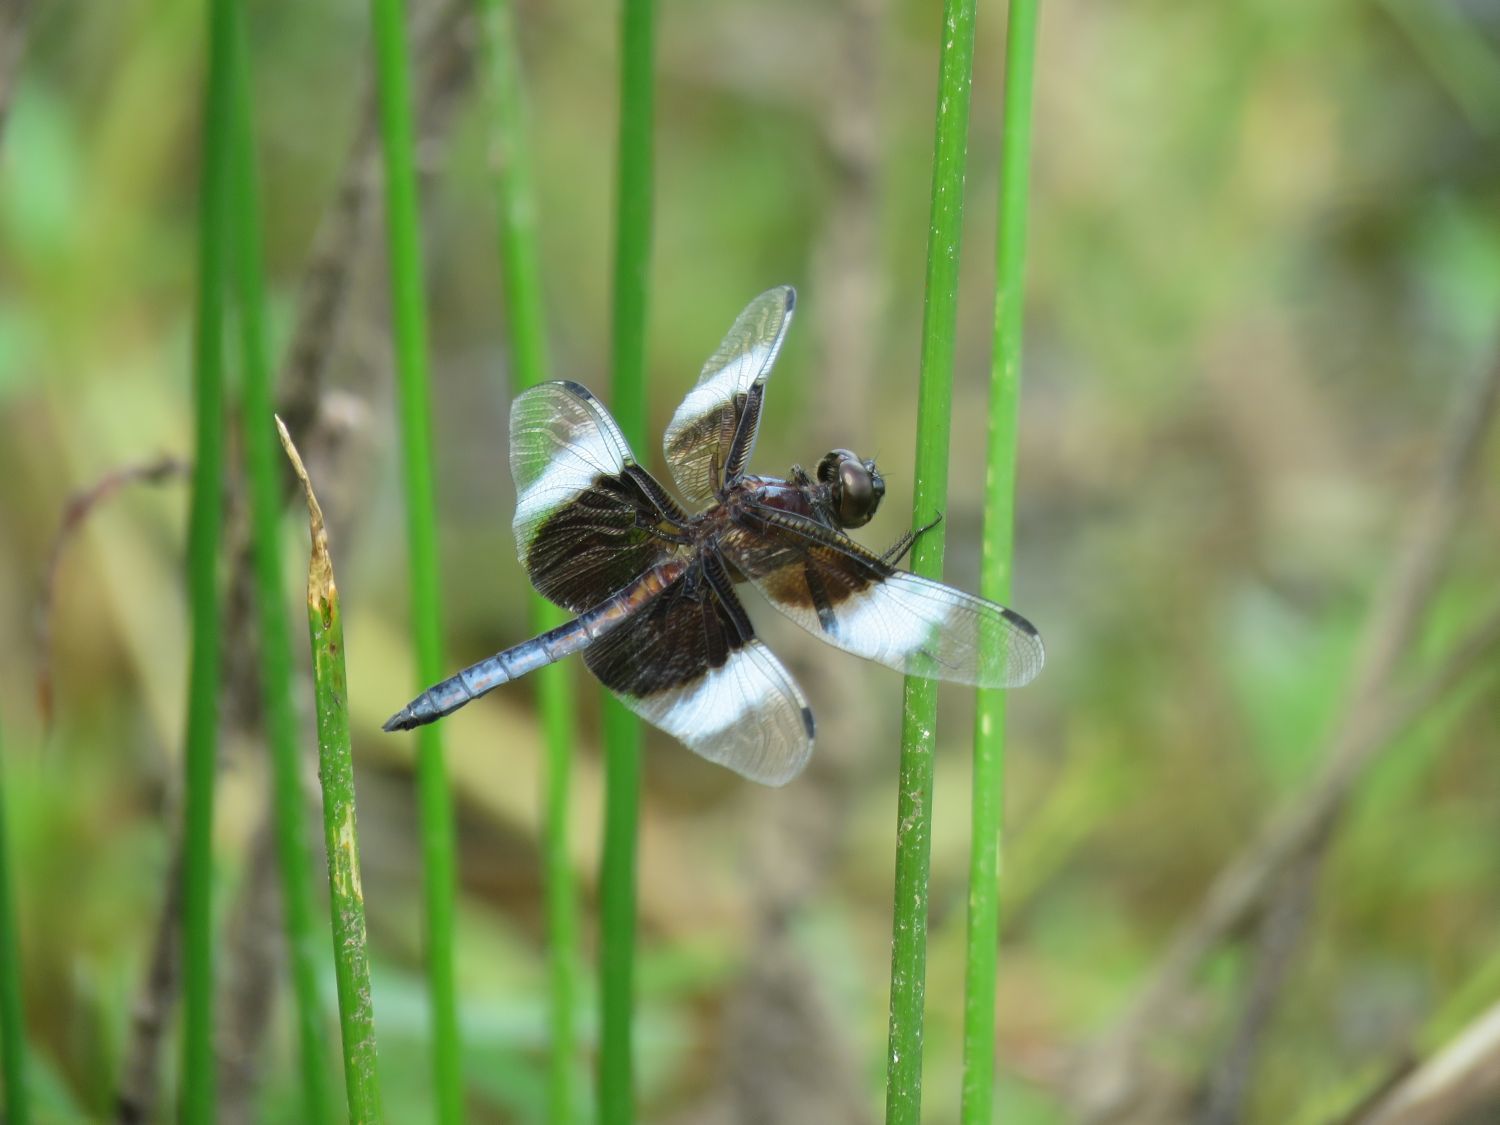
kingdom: Animalia
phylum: Arthropoda
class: Insecta
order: Odonata
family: Libellulidae
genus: Libellula
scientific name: Libellula luctuosa
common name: Widow skimmer
